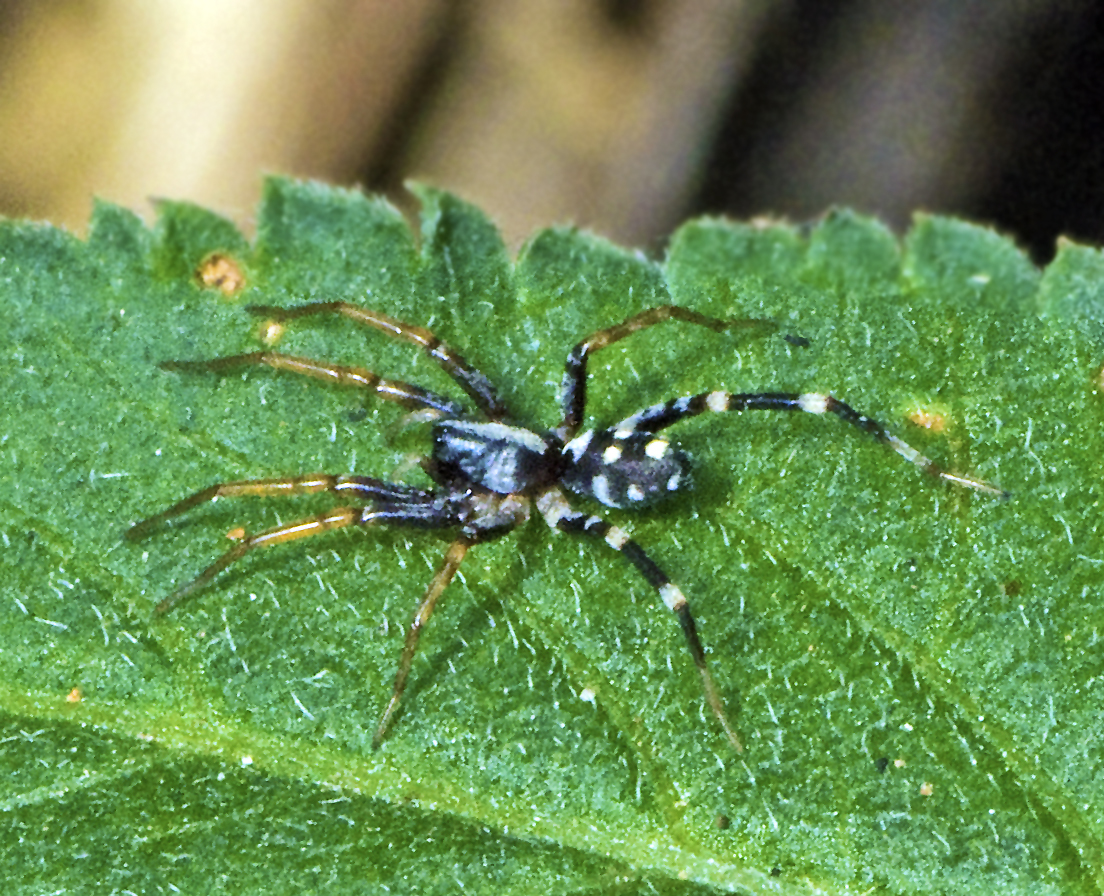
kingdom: Animalia
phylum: Arthropoda
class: Arachnida
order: Araneae
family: Corinnidae
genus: Nyssus
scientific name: Nyssus coloripes
